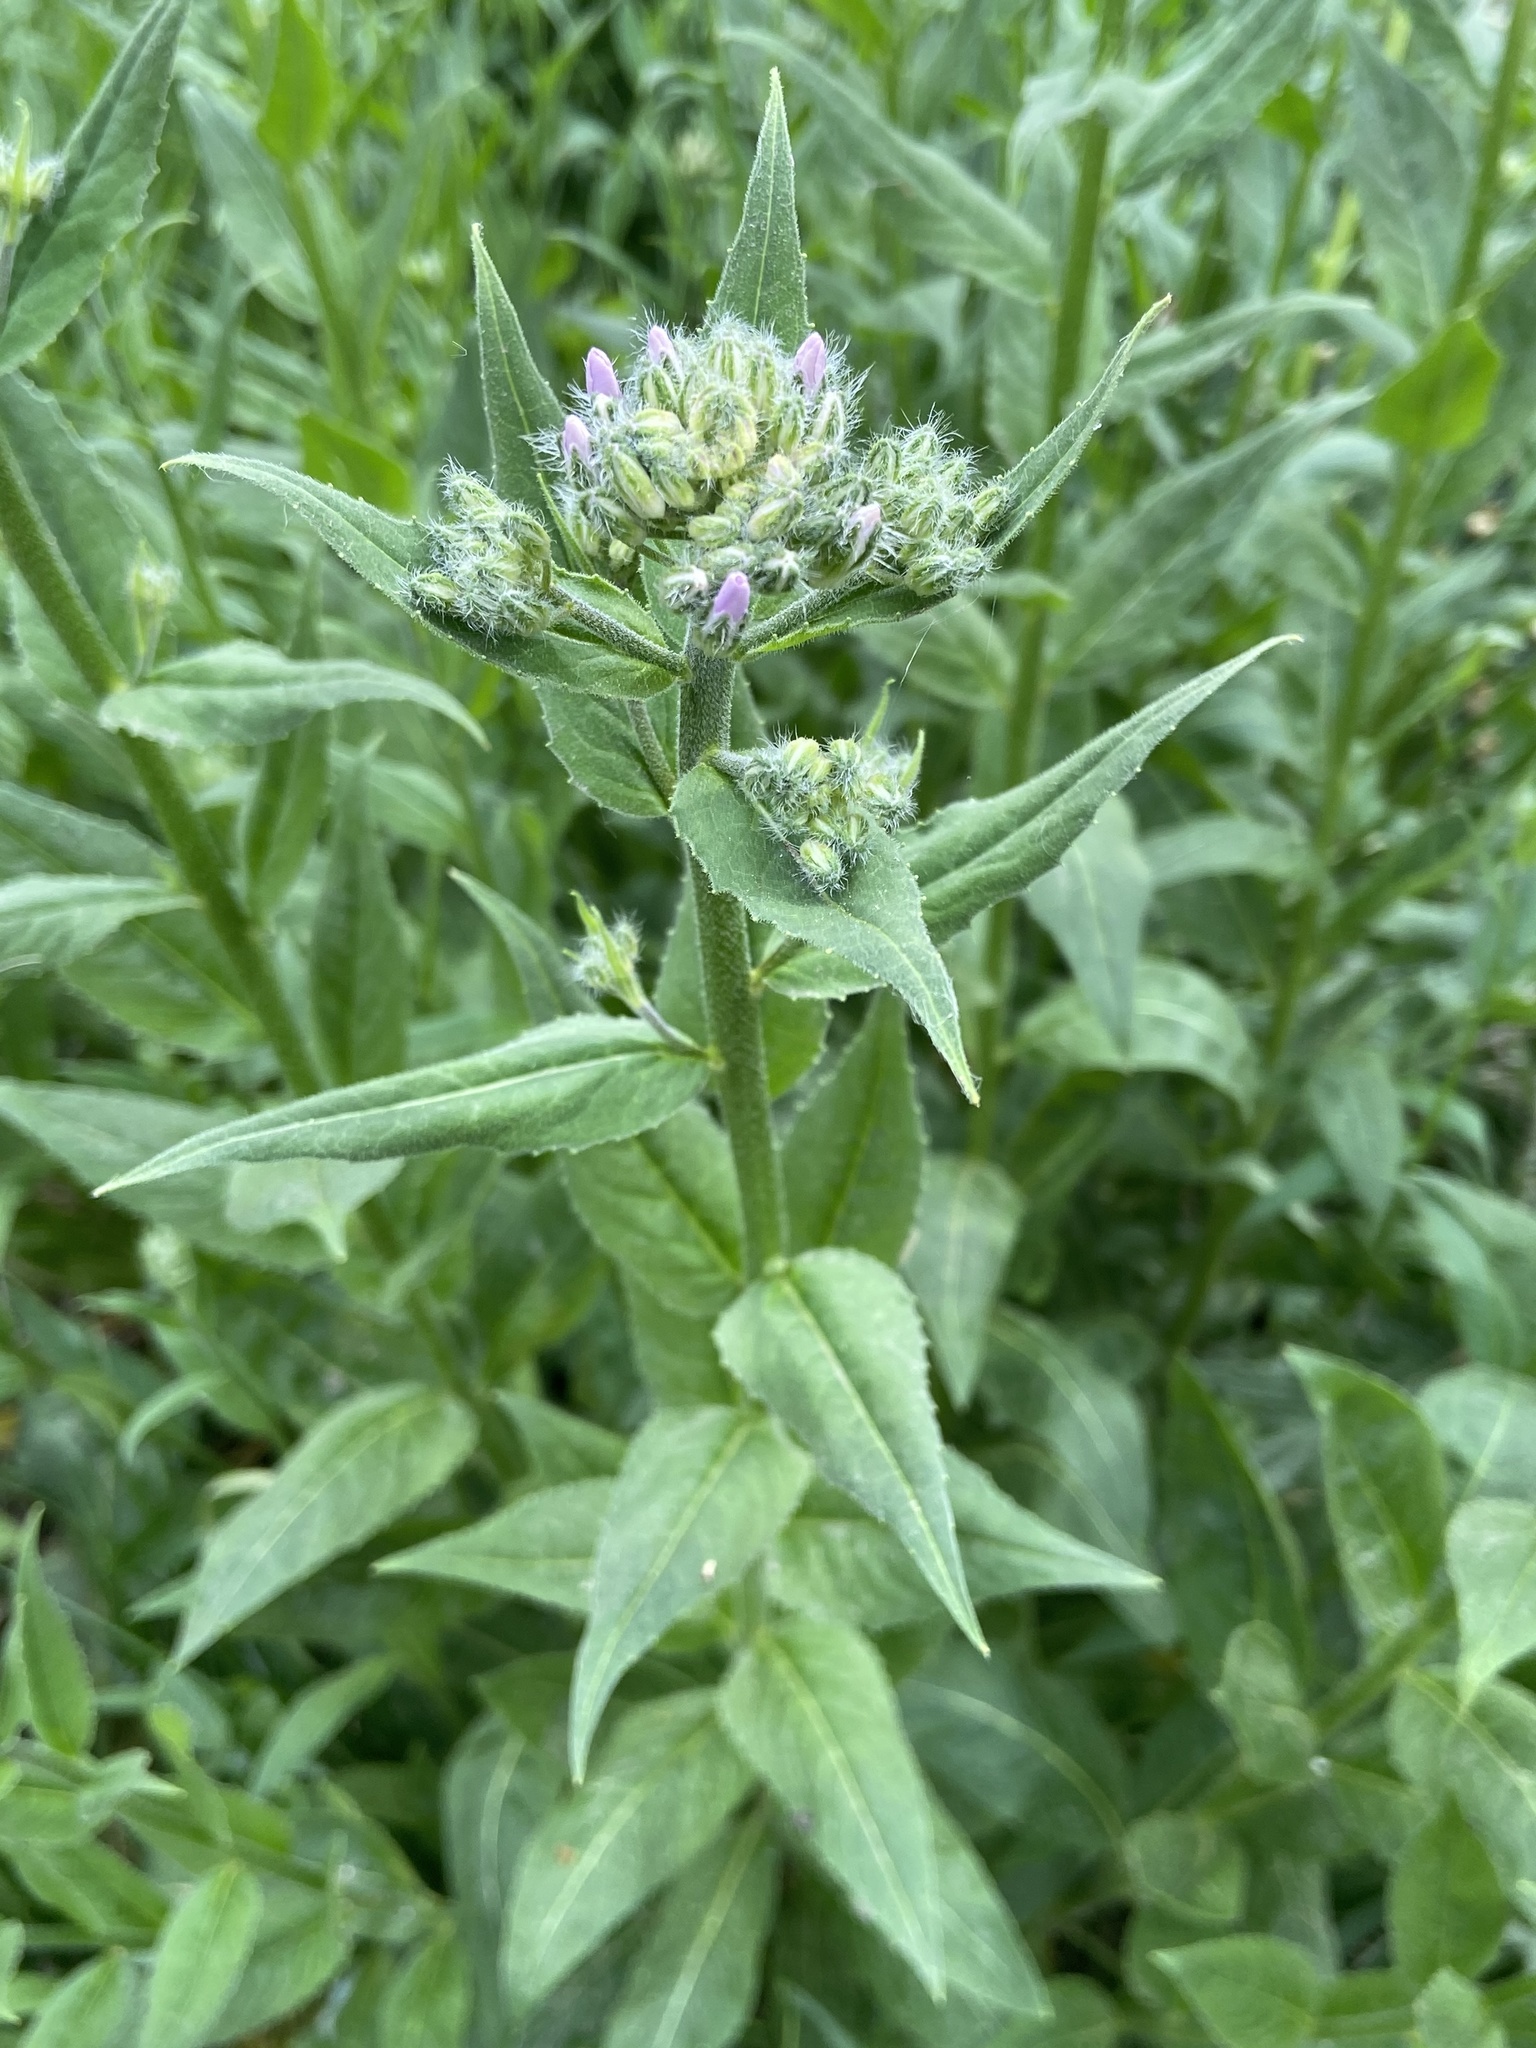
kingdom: Plantae
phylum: Tracheophyta
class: Magnoliopsida
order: Brassicales
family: Brassicaceae
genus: Hesperis
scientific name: Hesperis matronalis
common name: Dame's-violet
